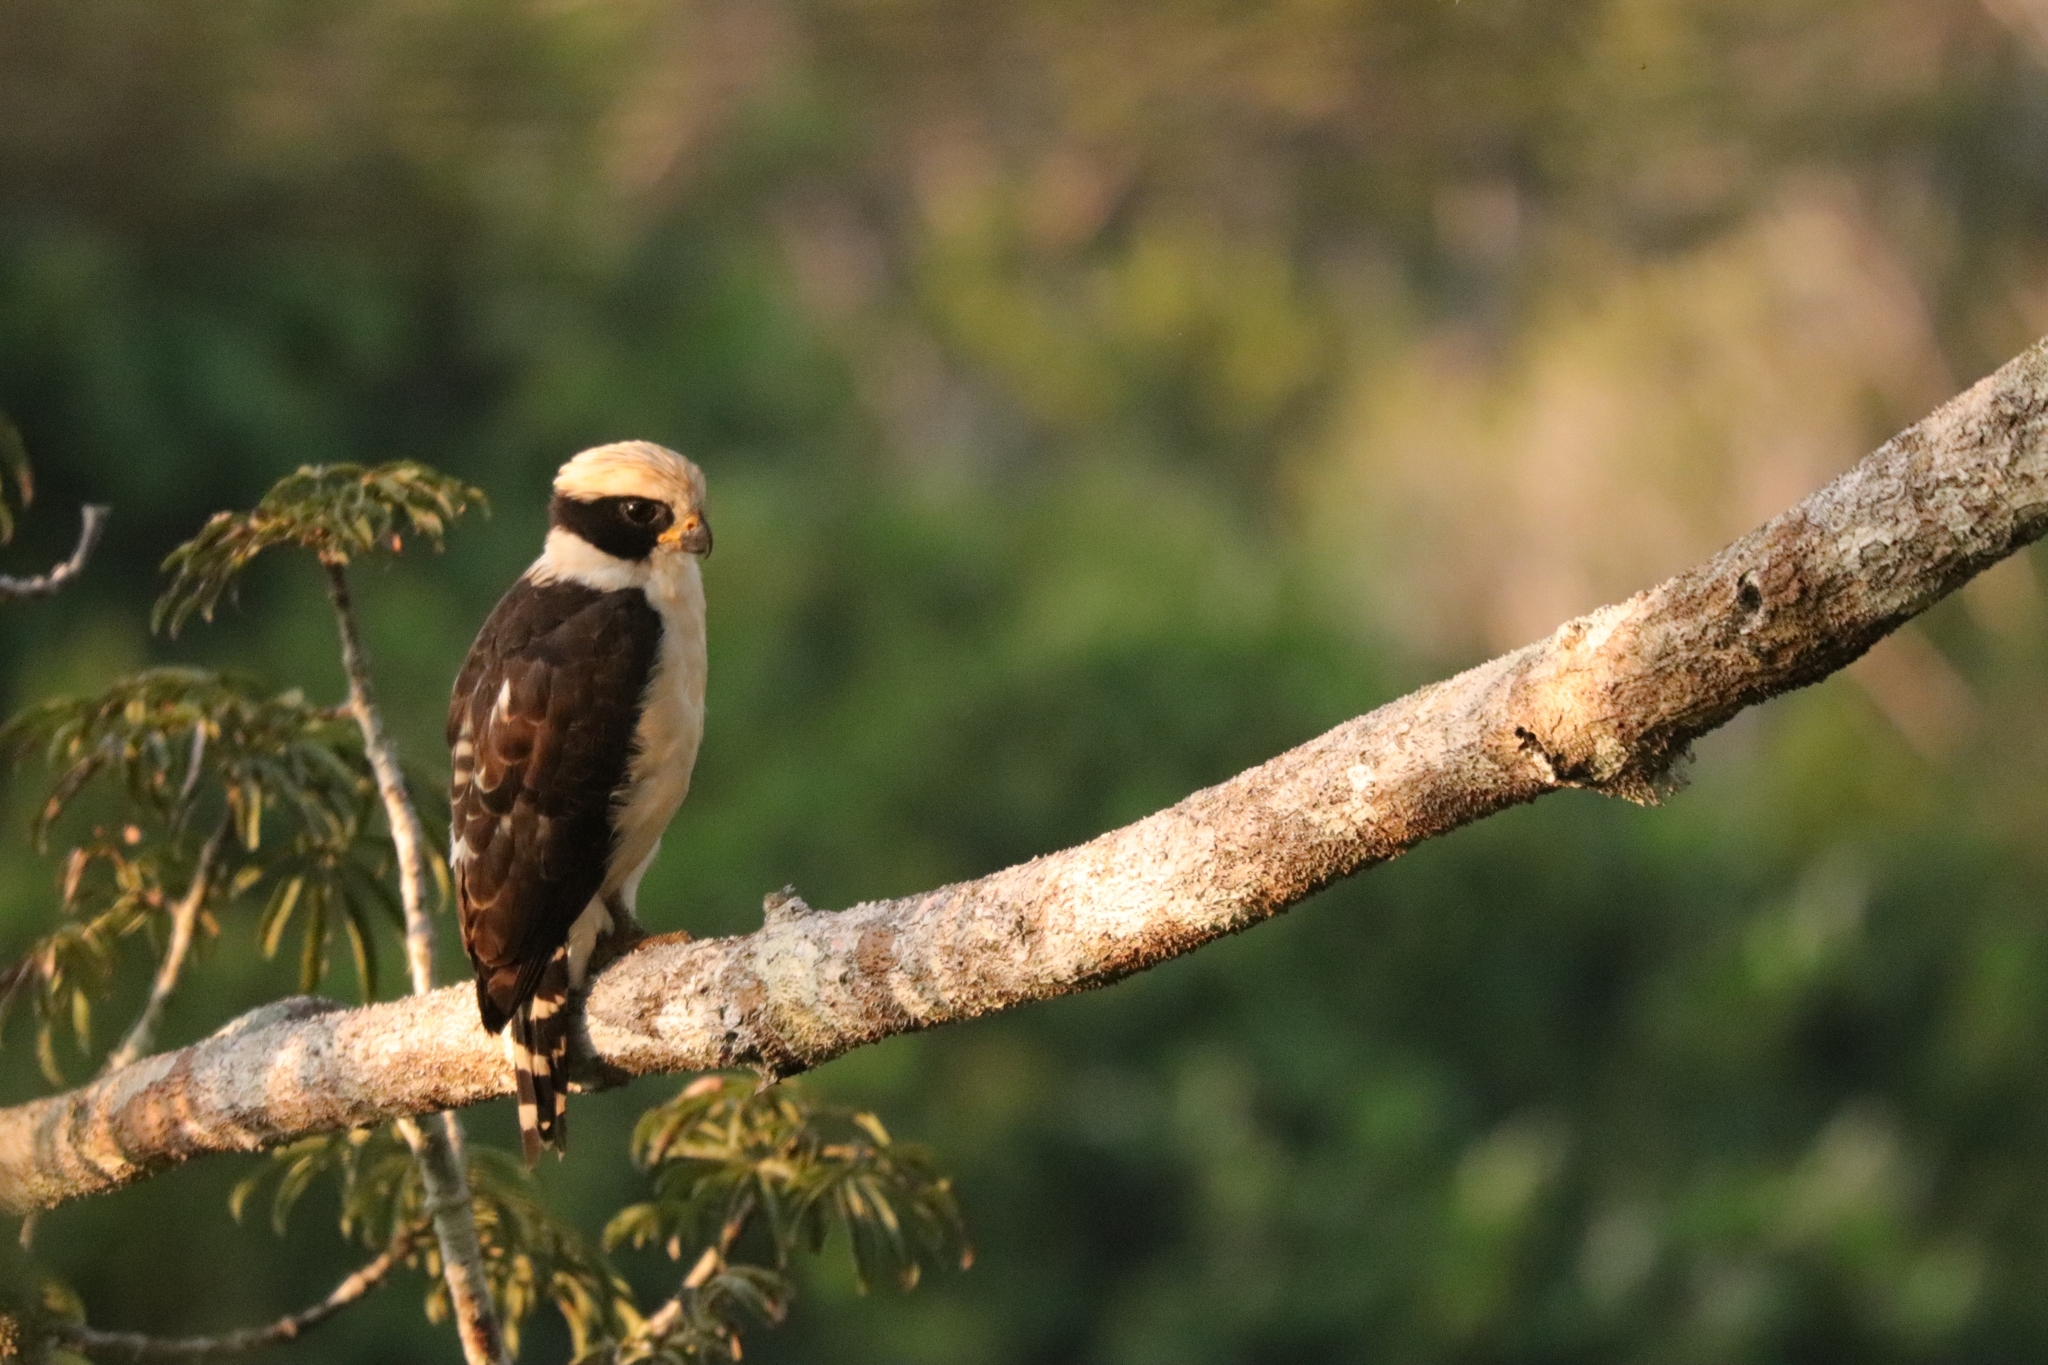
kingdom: Animalia
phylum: Chordata
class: Aves
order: Falconiformes
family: Falconidae
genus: Herpetotheres
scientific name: Herpetotheres cachinnans
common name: Laughing falcon
